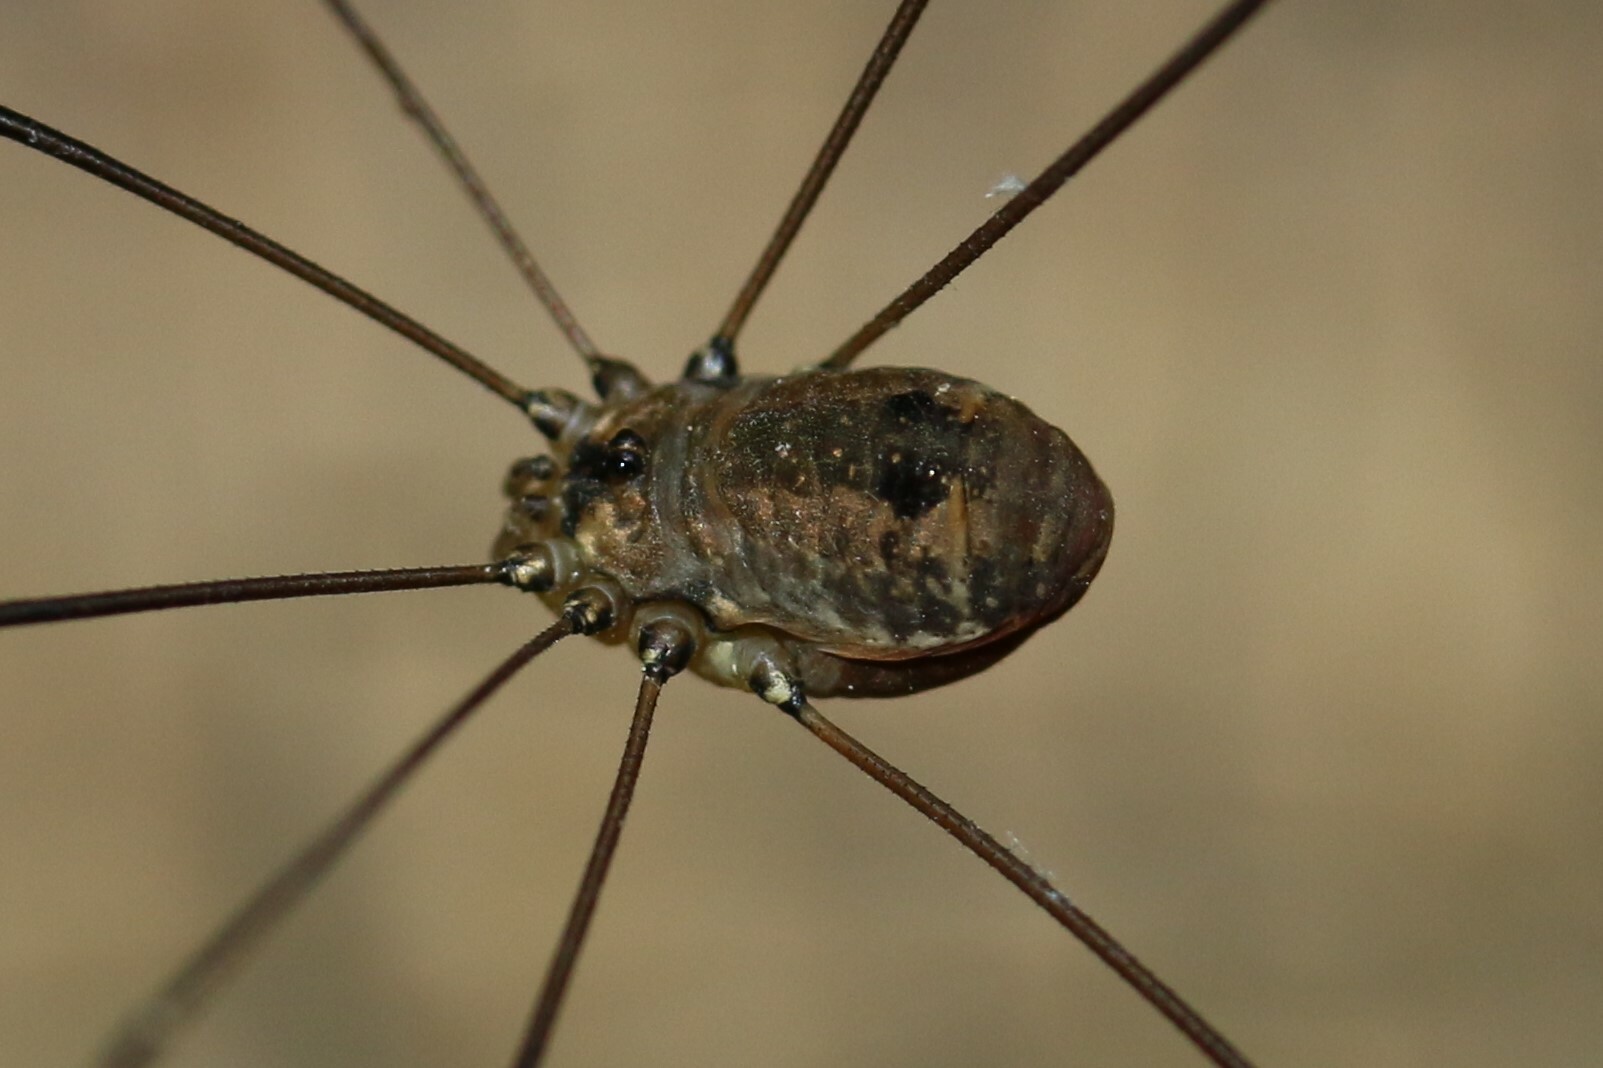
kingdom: Animalia
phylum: Arthropoda
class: Arachnida
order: Opiliones
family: Sclerosomatidae
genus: Leiobunum
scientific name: Leiobunum rotundum
